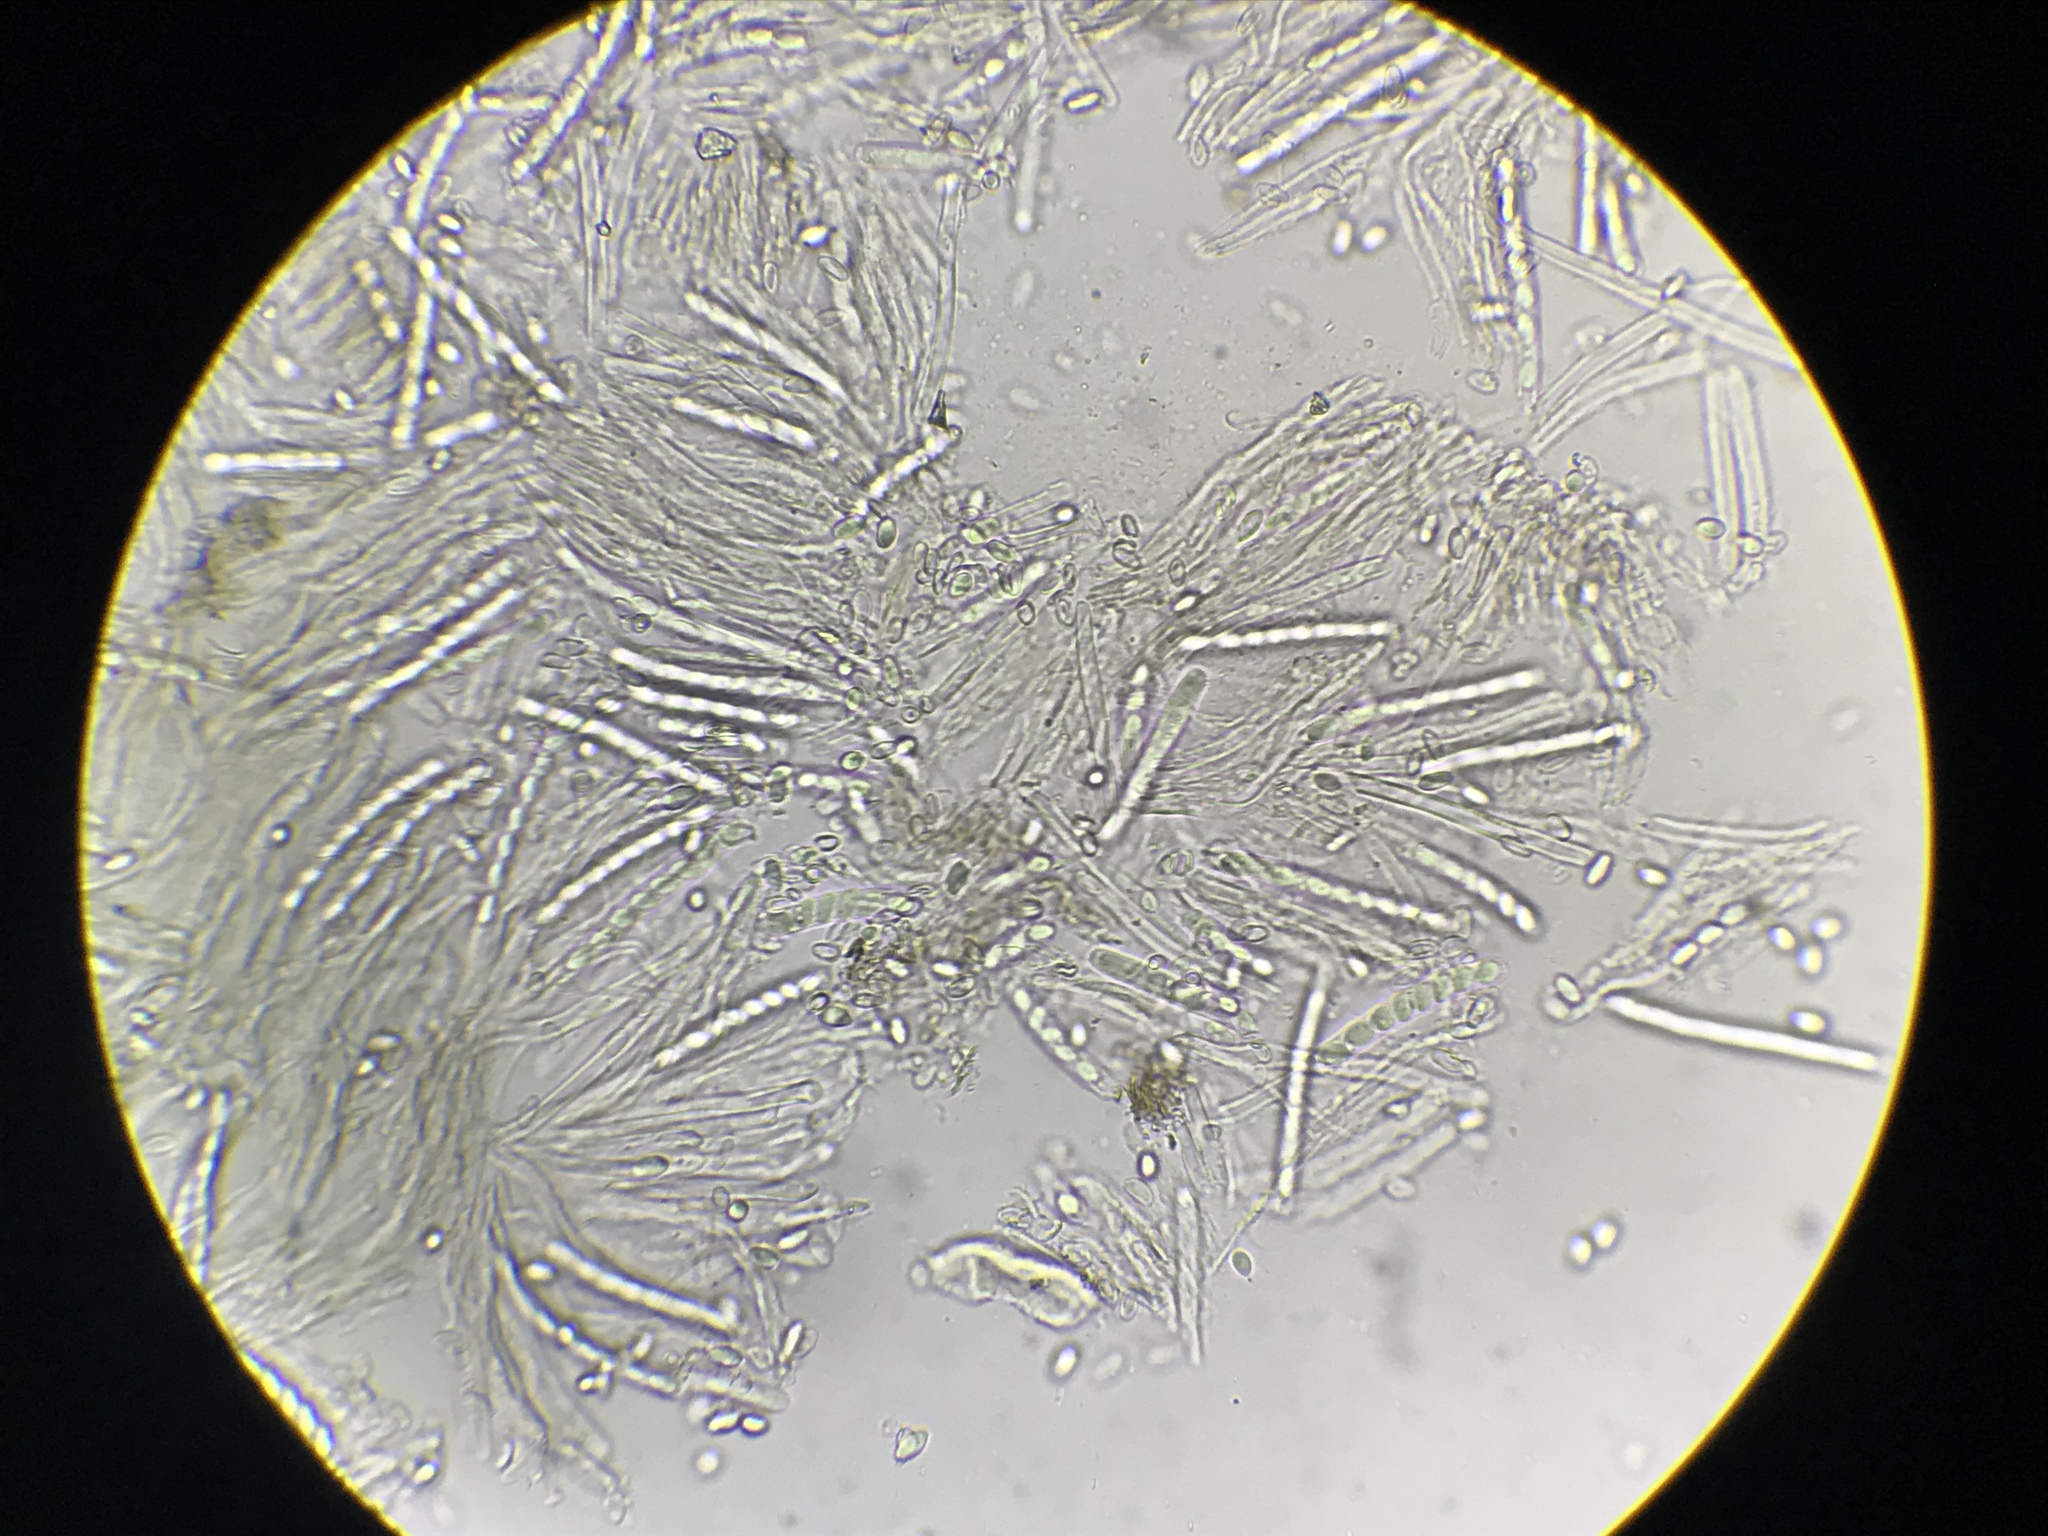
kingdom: Fungi
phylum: Ascomycota
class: Leotiomycetes
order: Helotiales
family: Sclerotiniaceae
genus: Ciboria
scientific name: Ciboria batschiana
